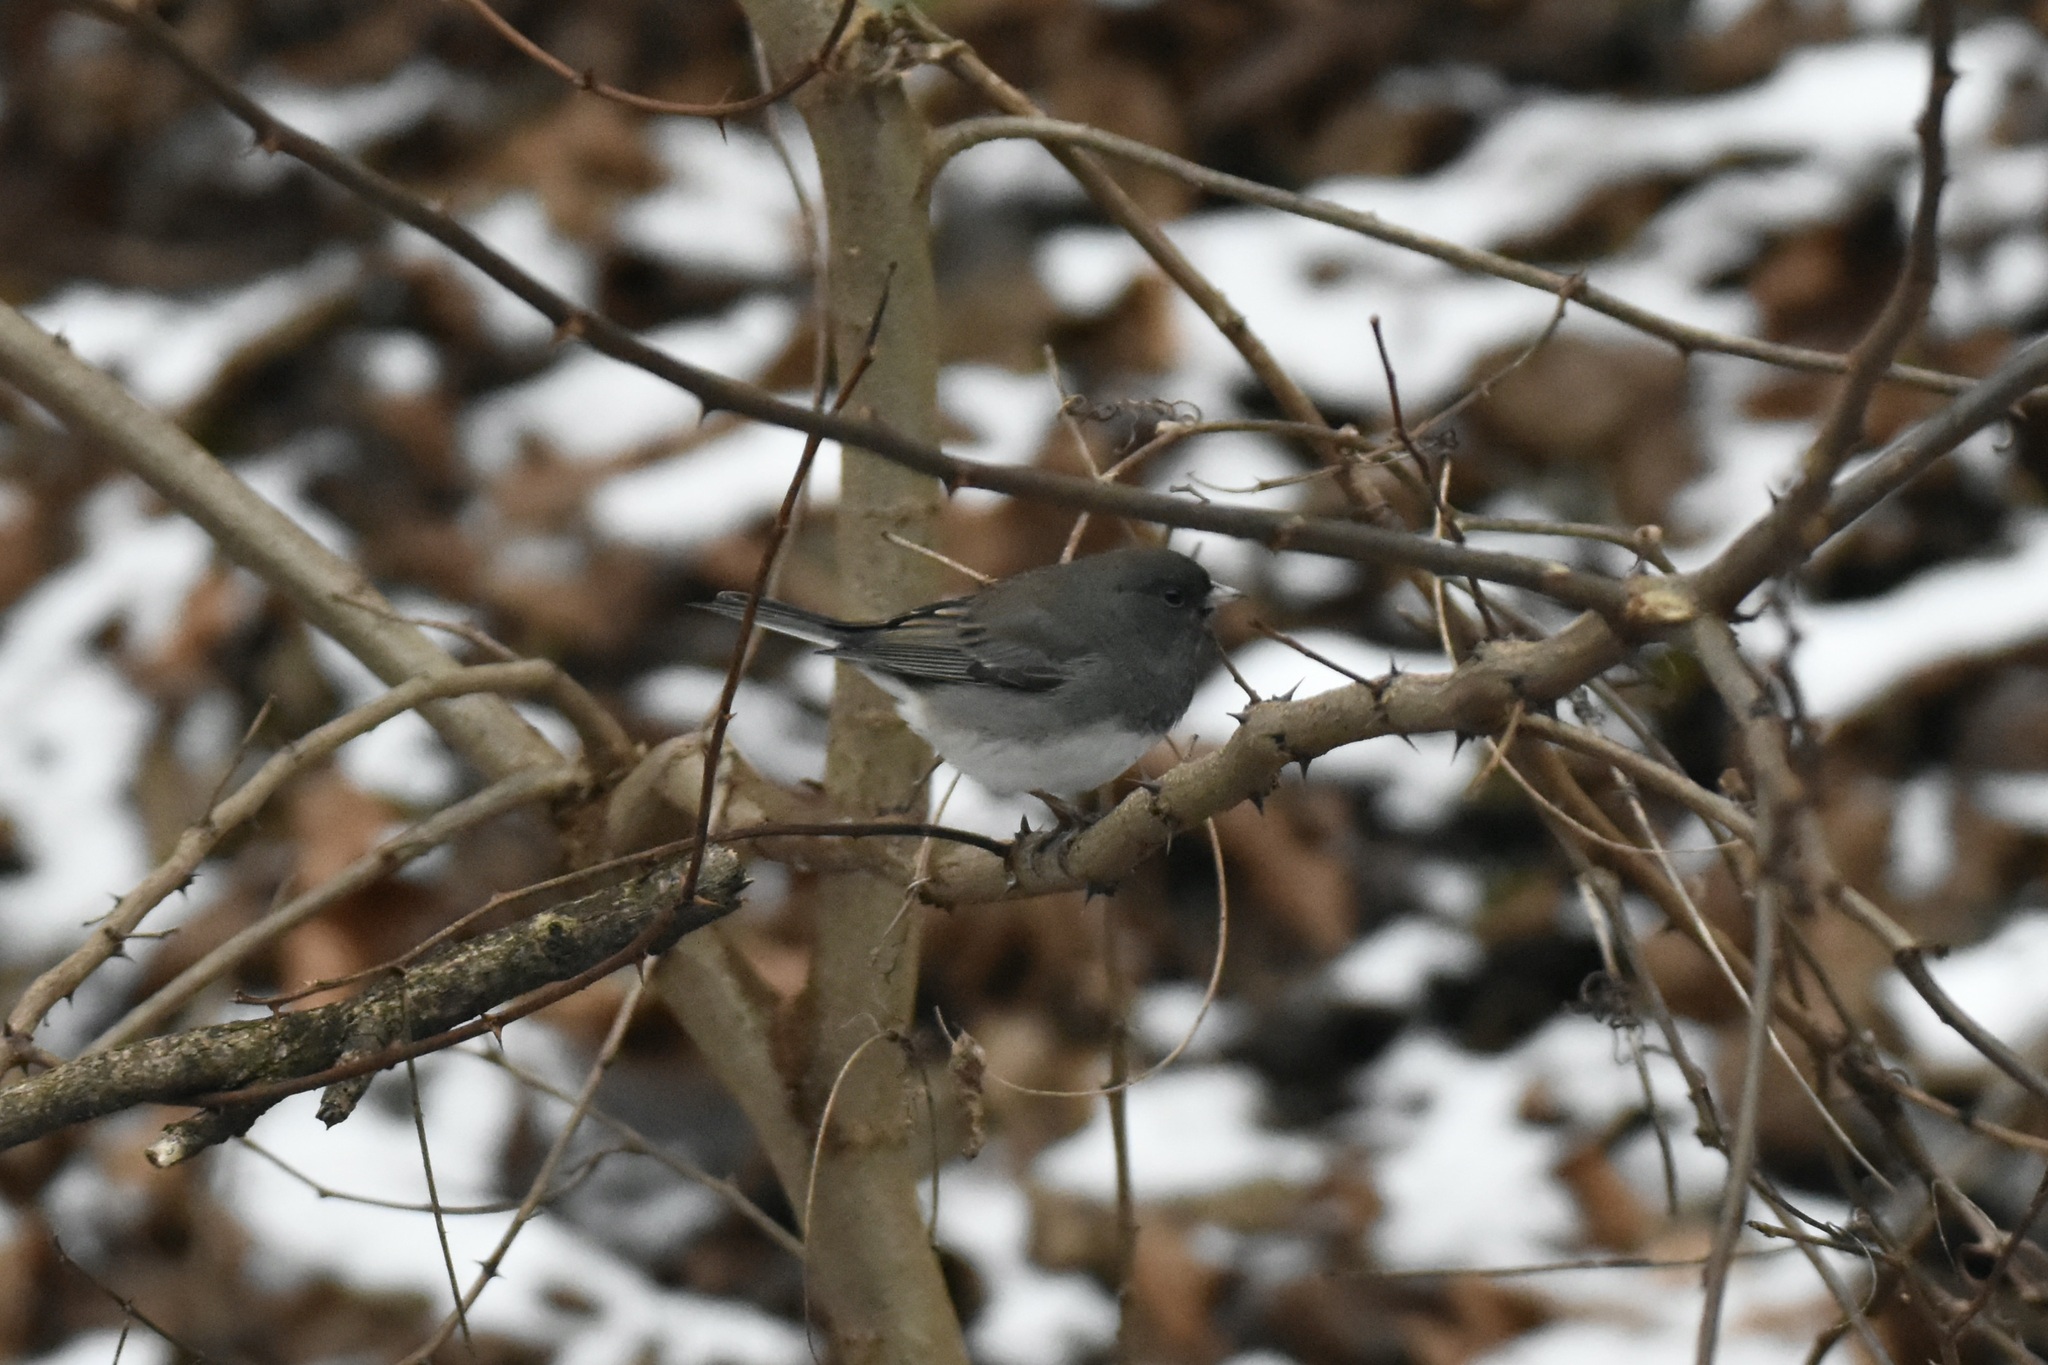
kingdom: Animalia
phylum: Chordata
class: Aves
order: Passeriformes
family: Passerellidae
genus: Junco
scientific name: Junco hyemalis
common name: Dark-eyed junco
